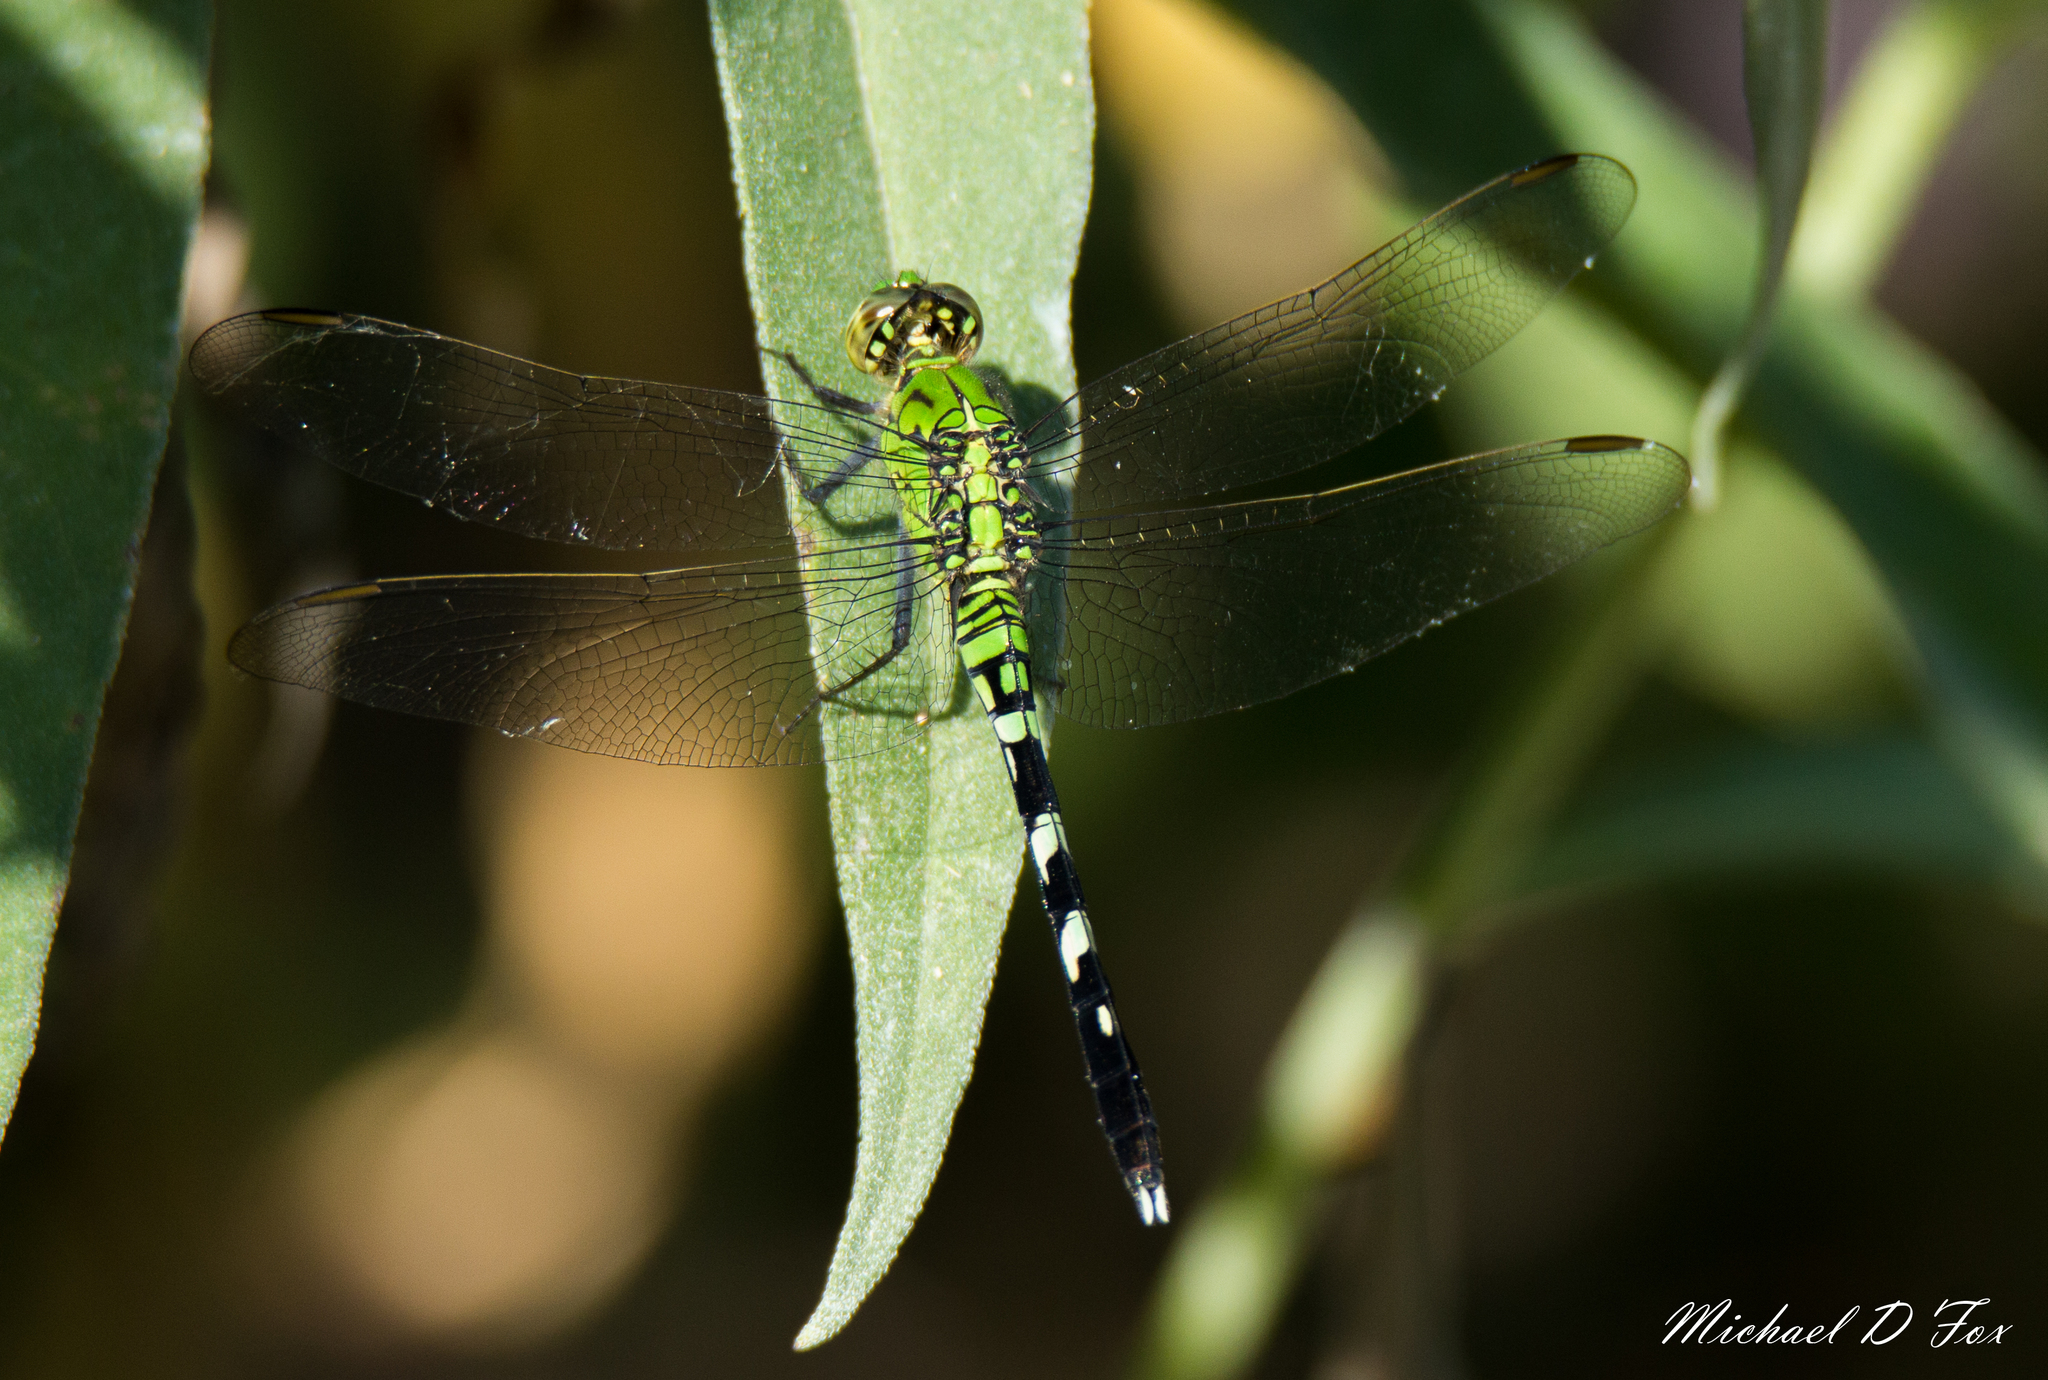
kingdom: Animalia
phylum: Arthropoda
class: Insecta
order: Odonata
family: Libellulidae
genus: Erythemis
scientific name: Erythemis simplicicollis
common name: Eastern pondhawk
